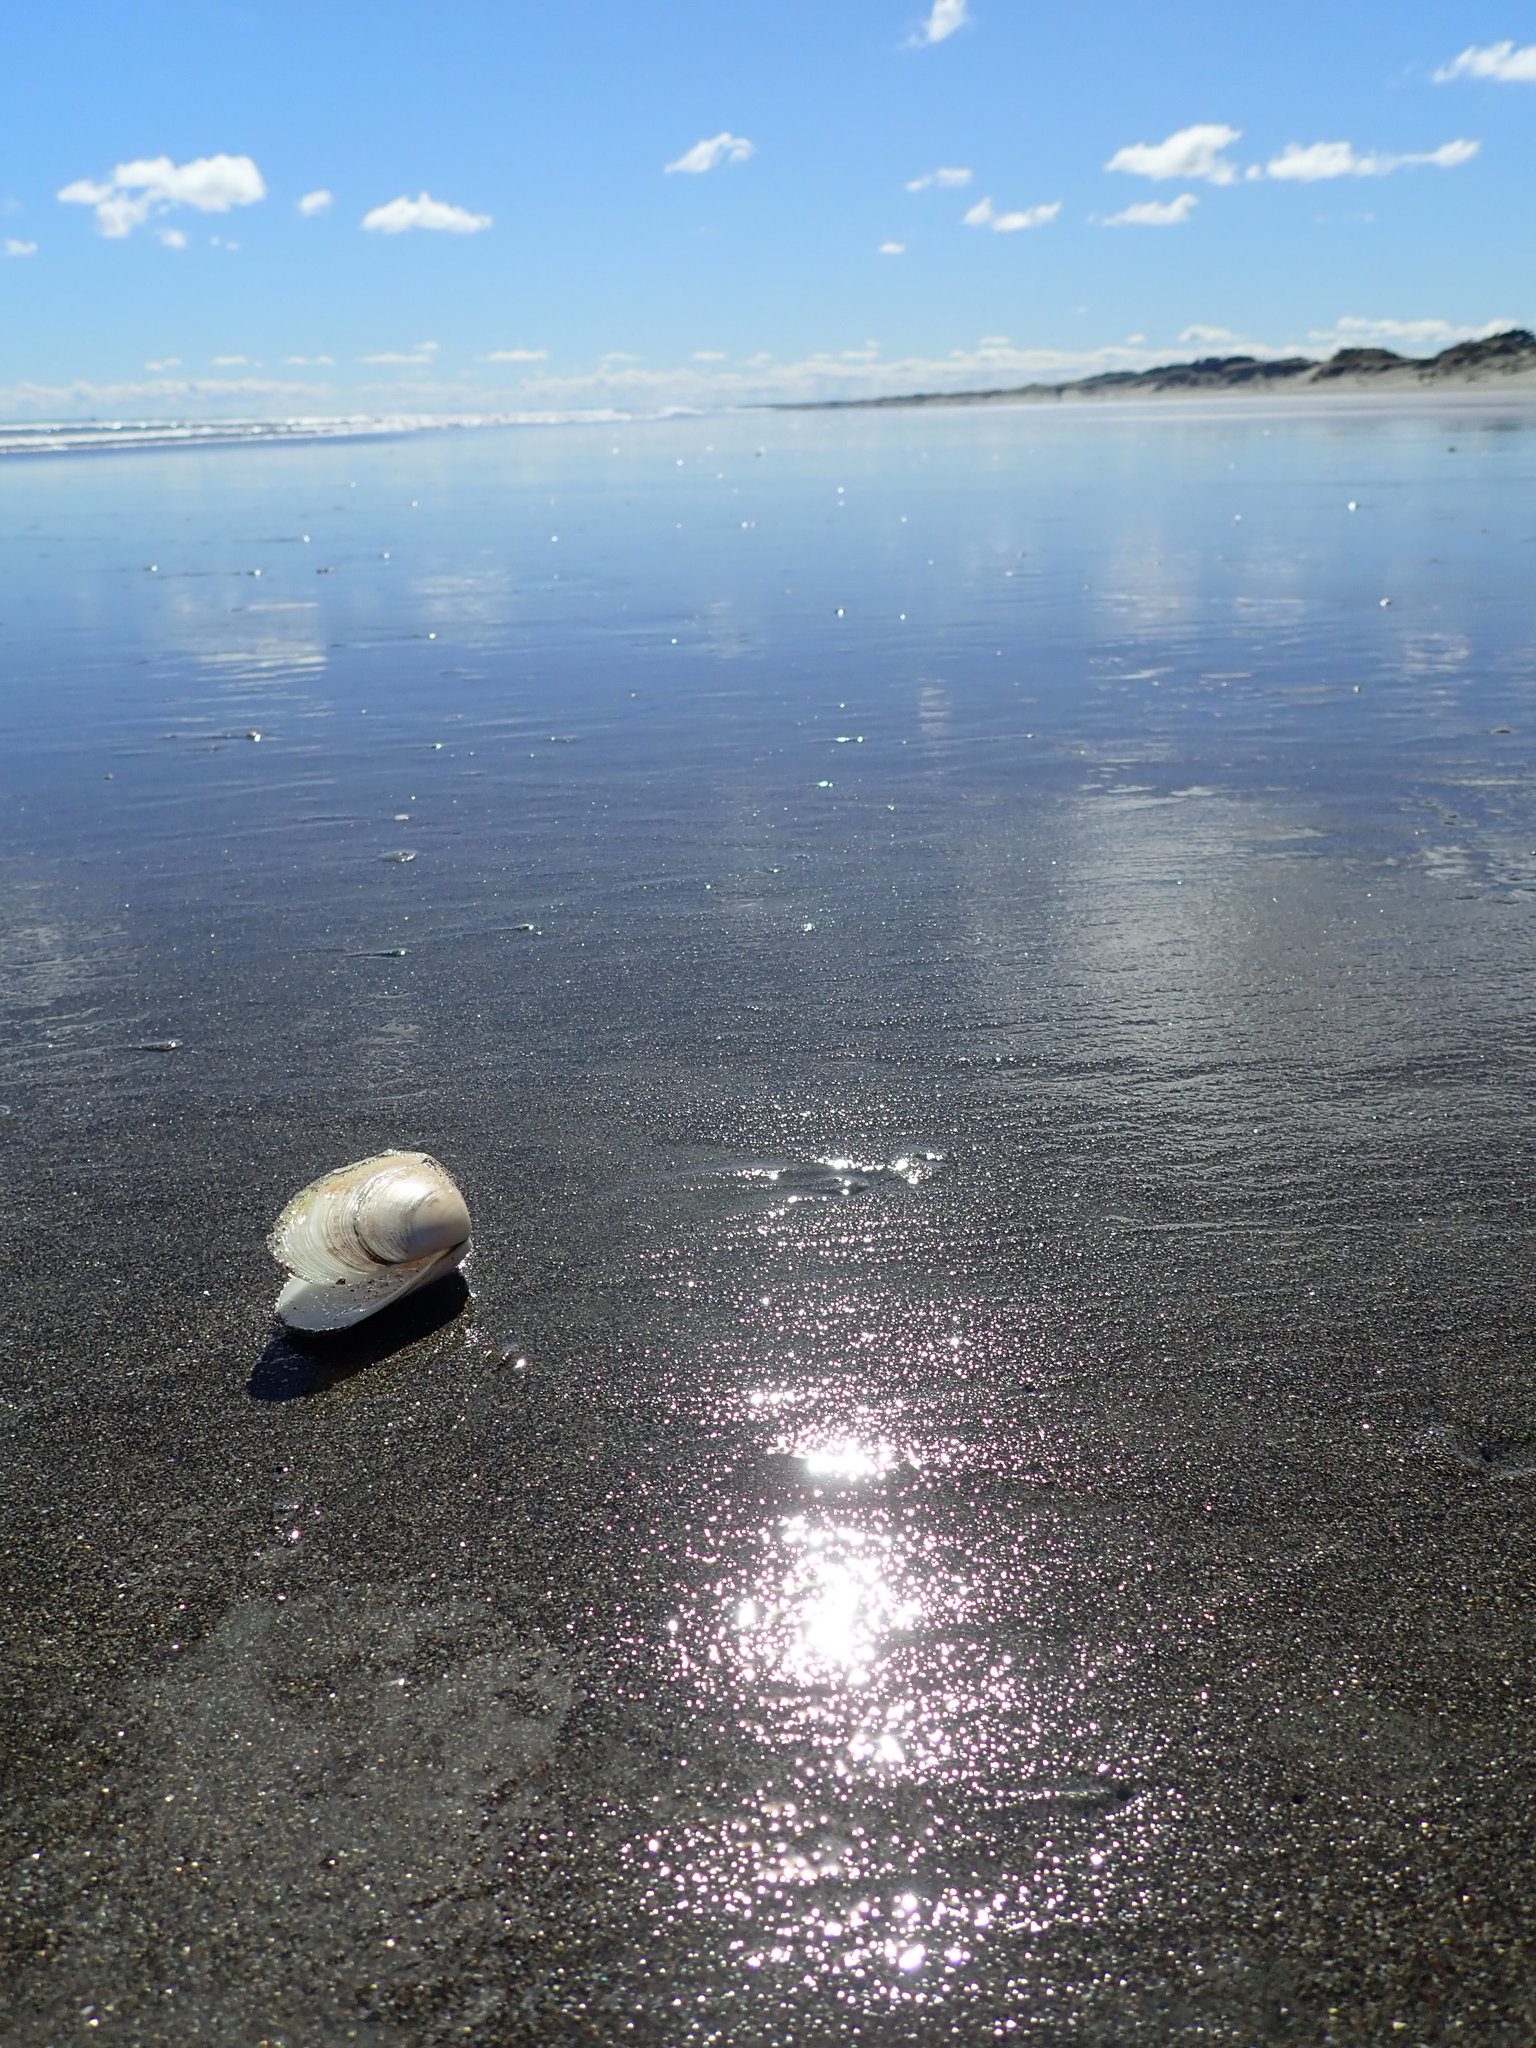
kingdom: Animalia
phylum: Mollusca
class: Bivalvia
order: Venerida
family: Mesodesmatidae
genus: Paphies
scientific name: Paphies donacina
